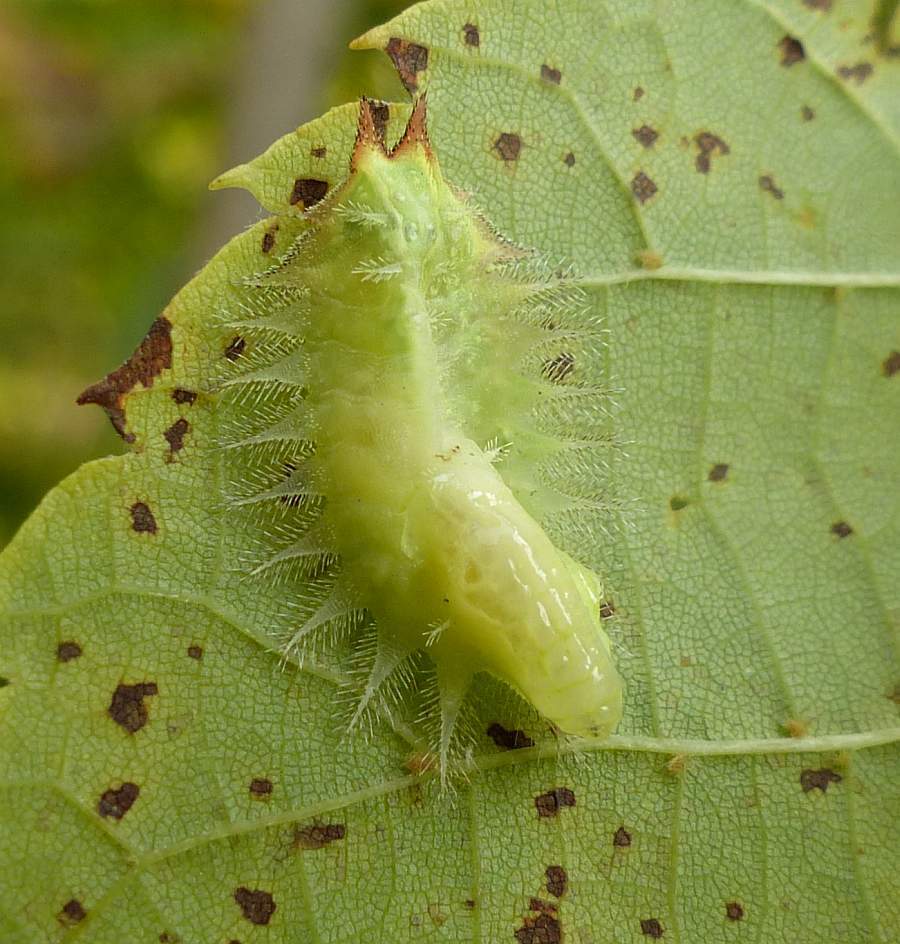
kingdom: Animalia
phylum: Arthropoda
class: Insecta
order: Lepidoptera
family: Limacodidae
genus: Isa
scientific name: Isa textula
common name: Crowned slug moth
